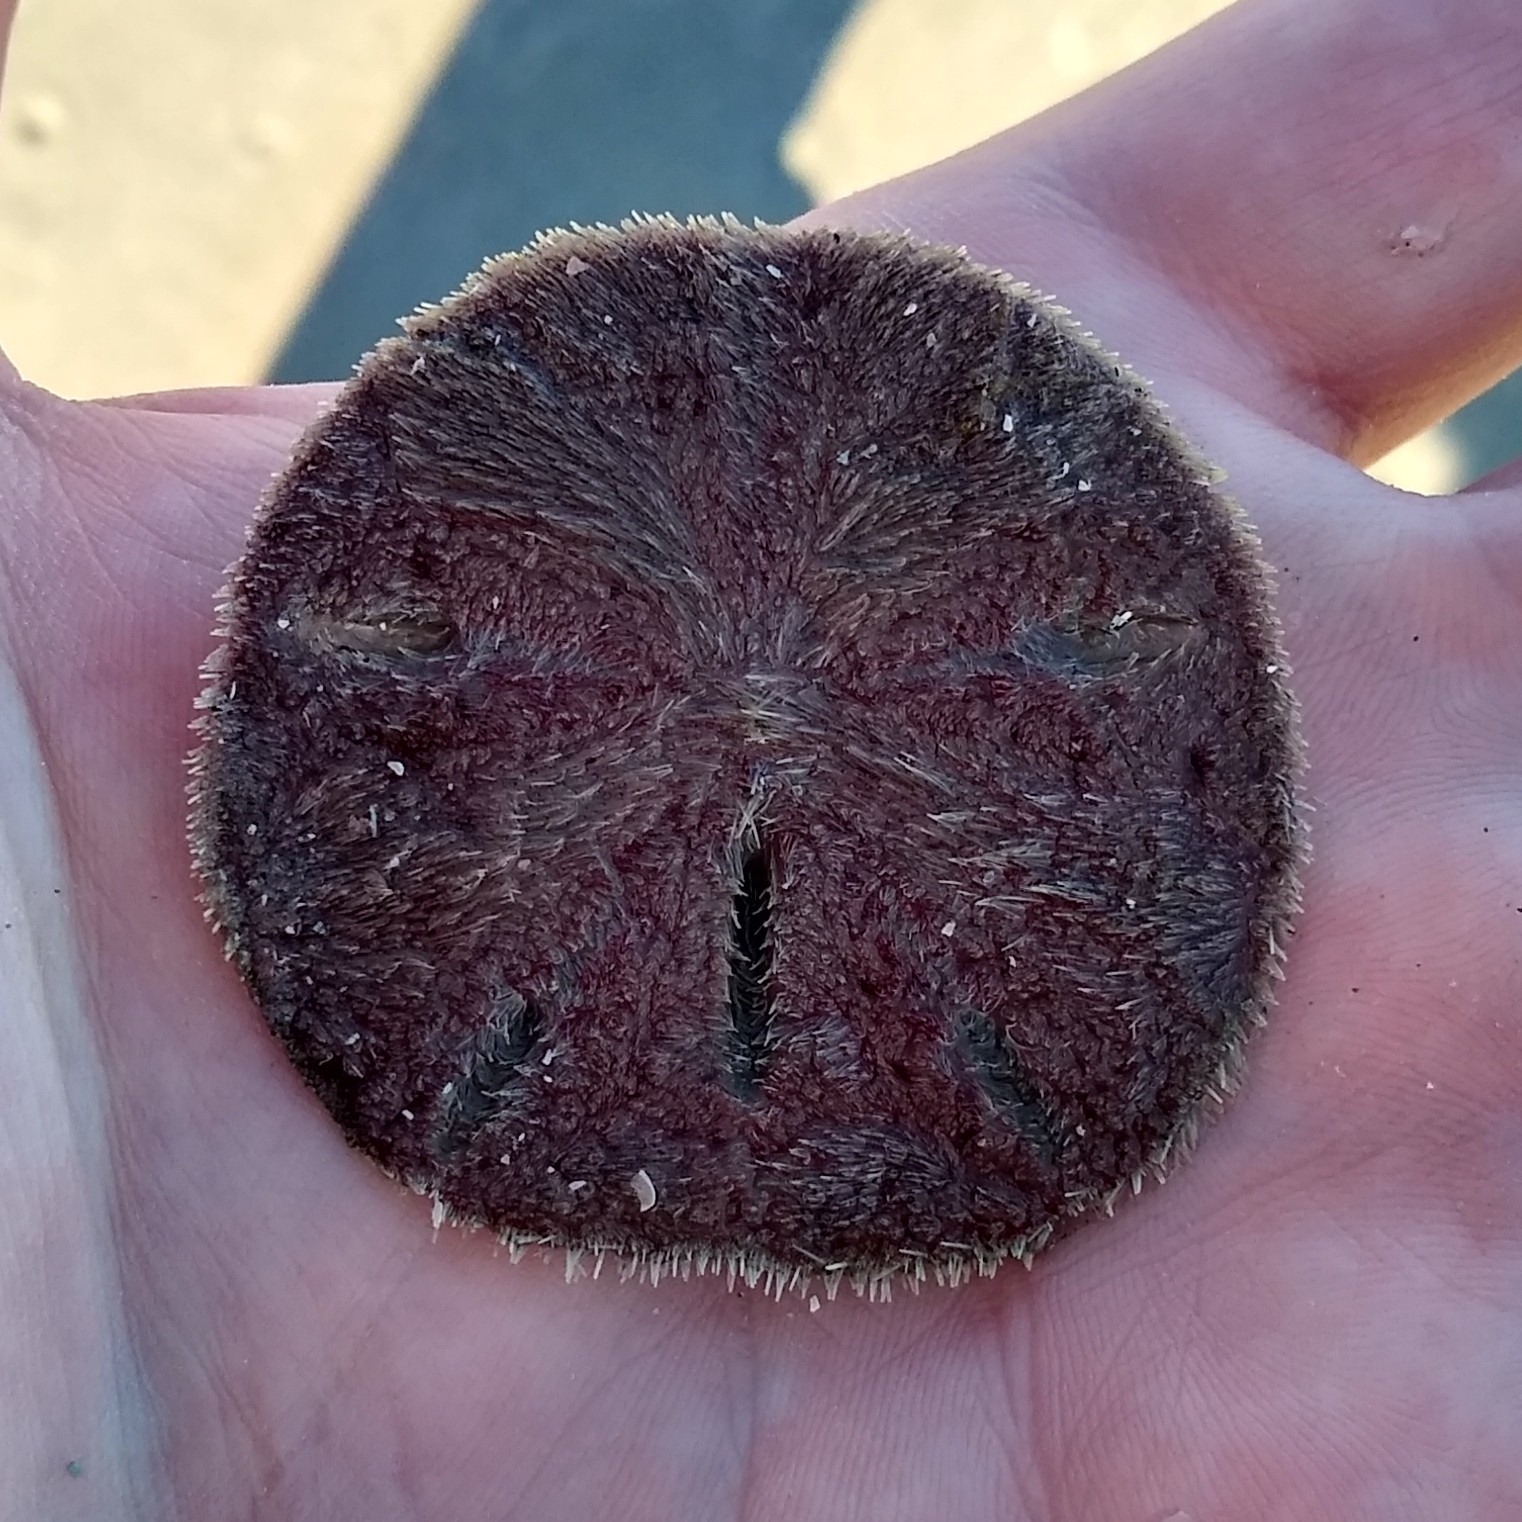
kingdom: Animalia
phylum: Echinodermata
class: Echinoidea
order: Echinolampadacea
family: Mellitidae
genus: Mellita
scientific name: Mellita isometra
